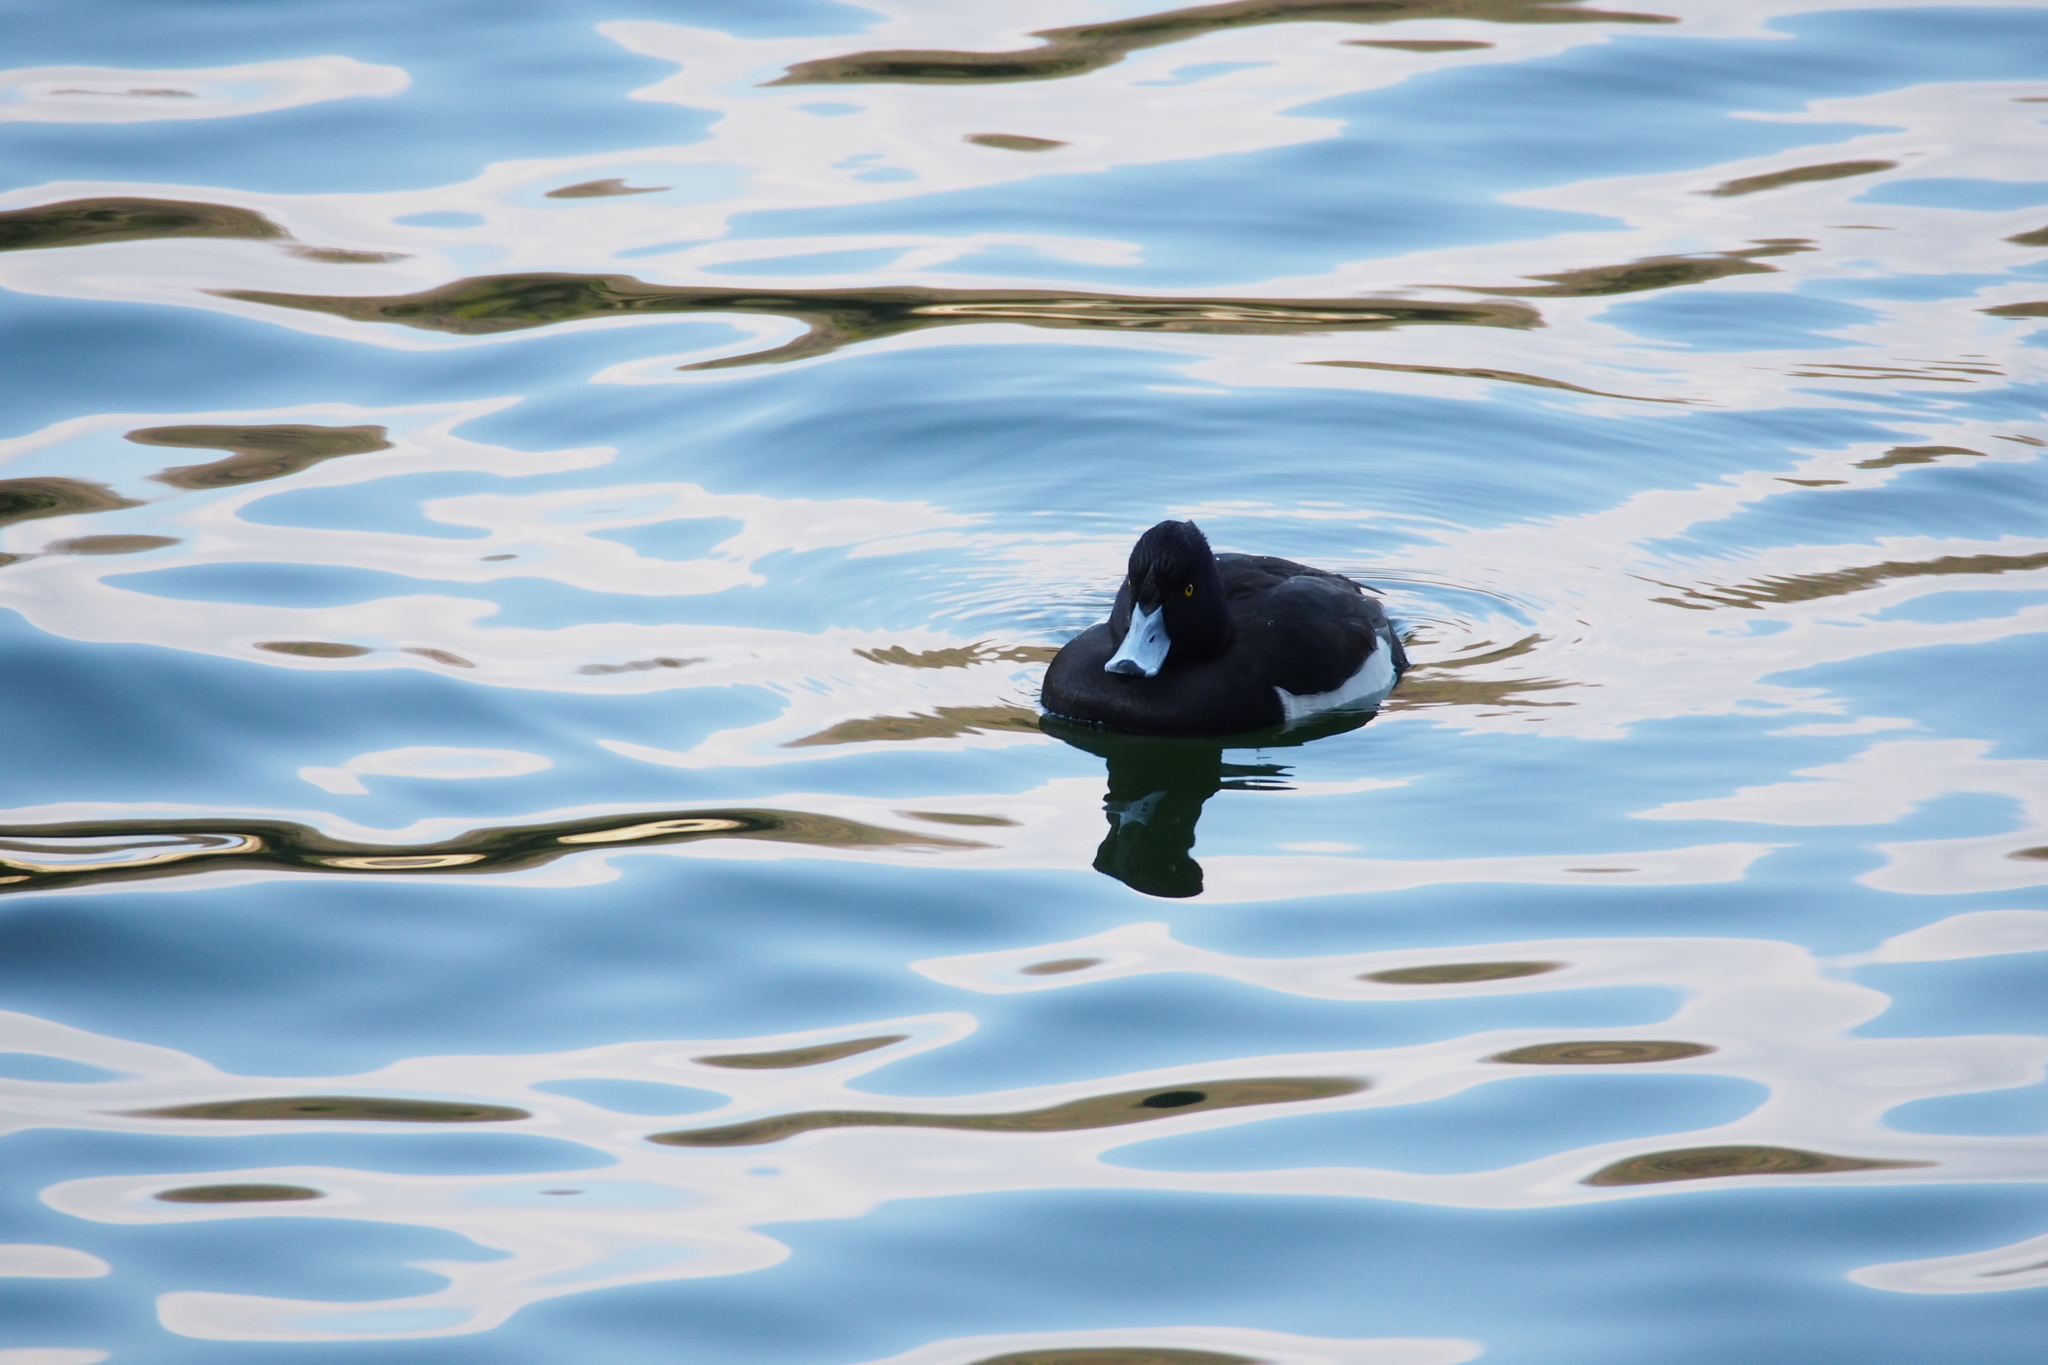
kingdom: Animalia
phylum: Chordata
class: Aves
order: Anseriformes
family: Anatidae
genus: Aythya
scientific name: Aythya fuligula
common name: Tufted duck
